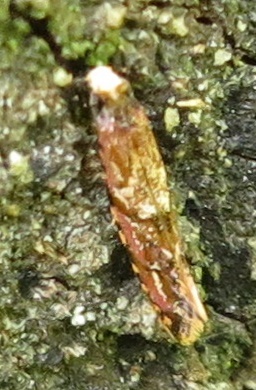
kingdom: Animalia
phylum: Arthropoda
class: Insecta
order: Lepidoptera
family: Tineidae
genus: Crypsitricha
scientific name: Crypsitricha roseata
